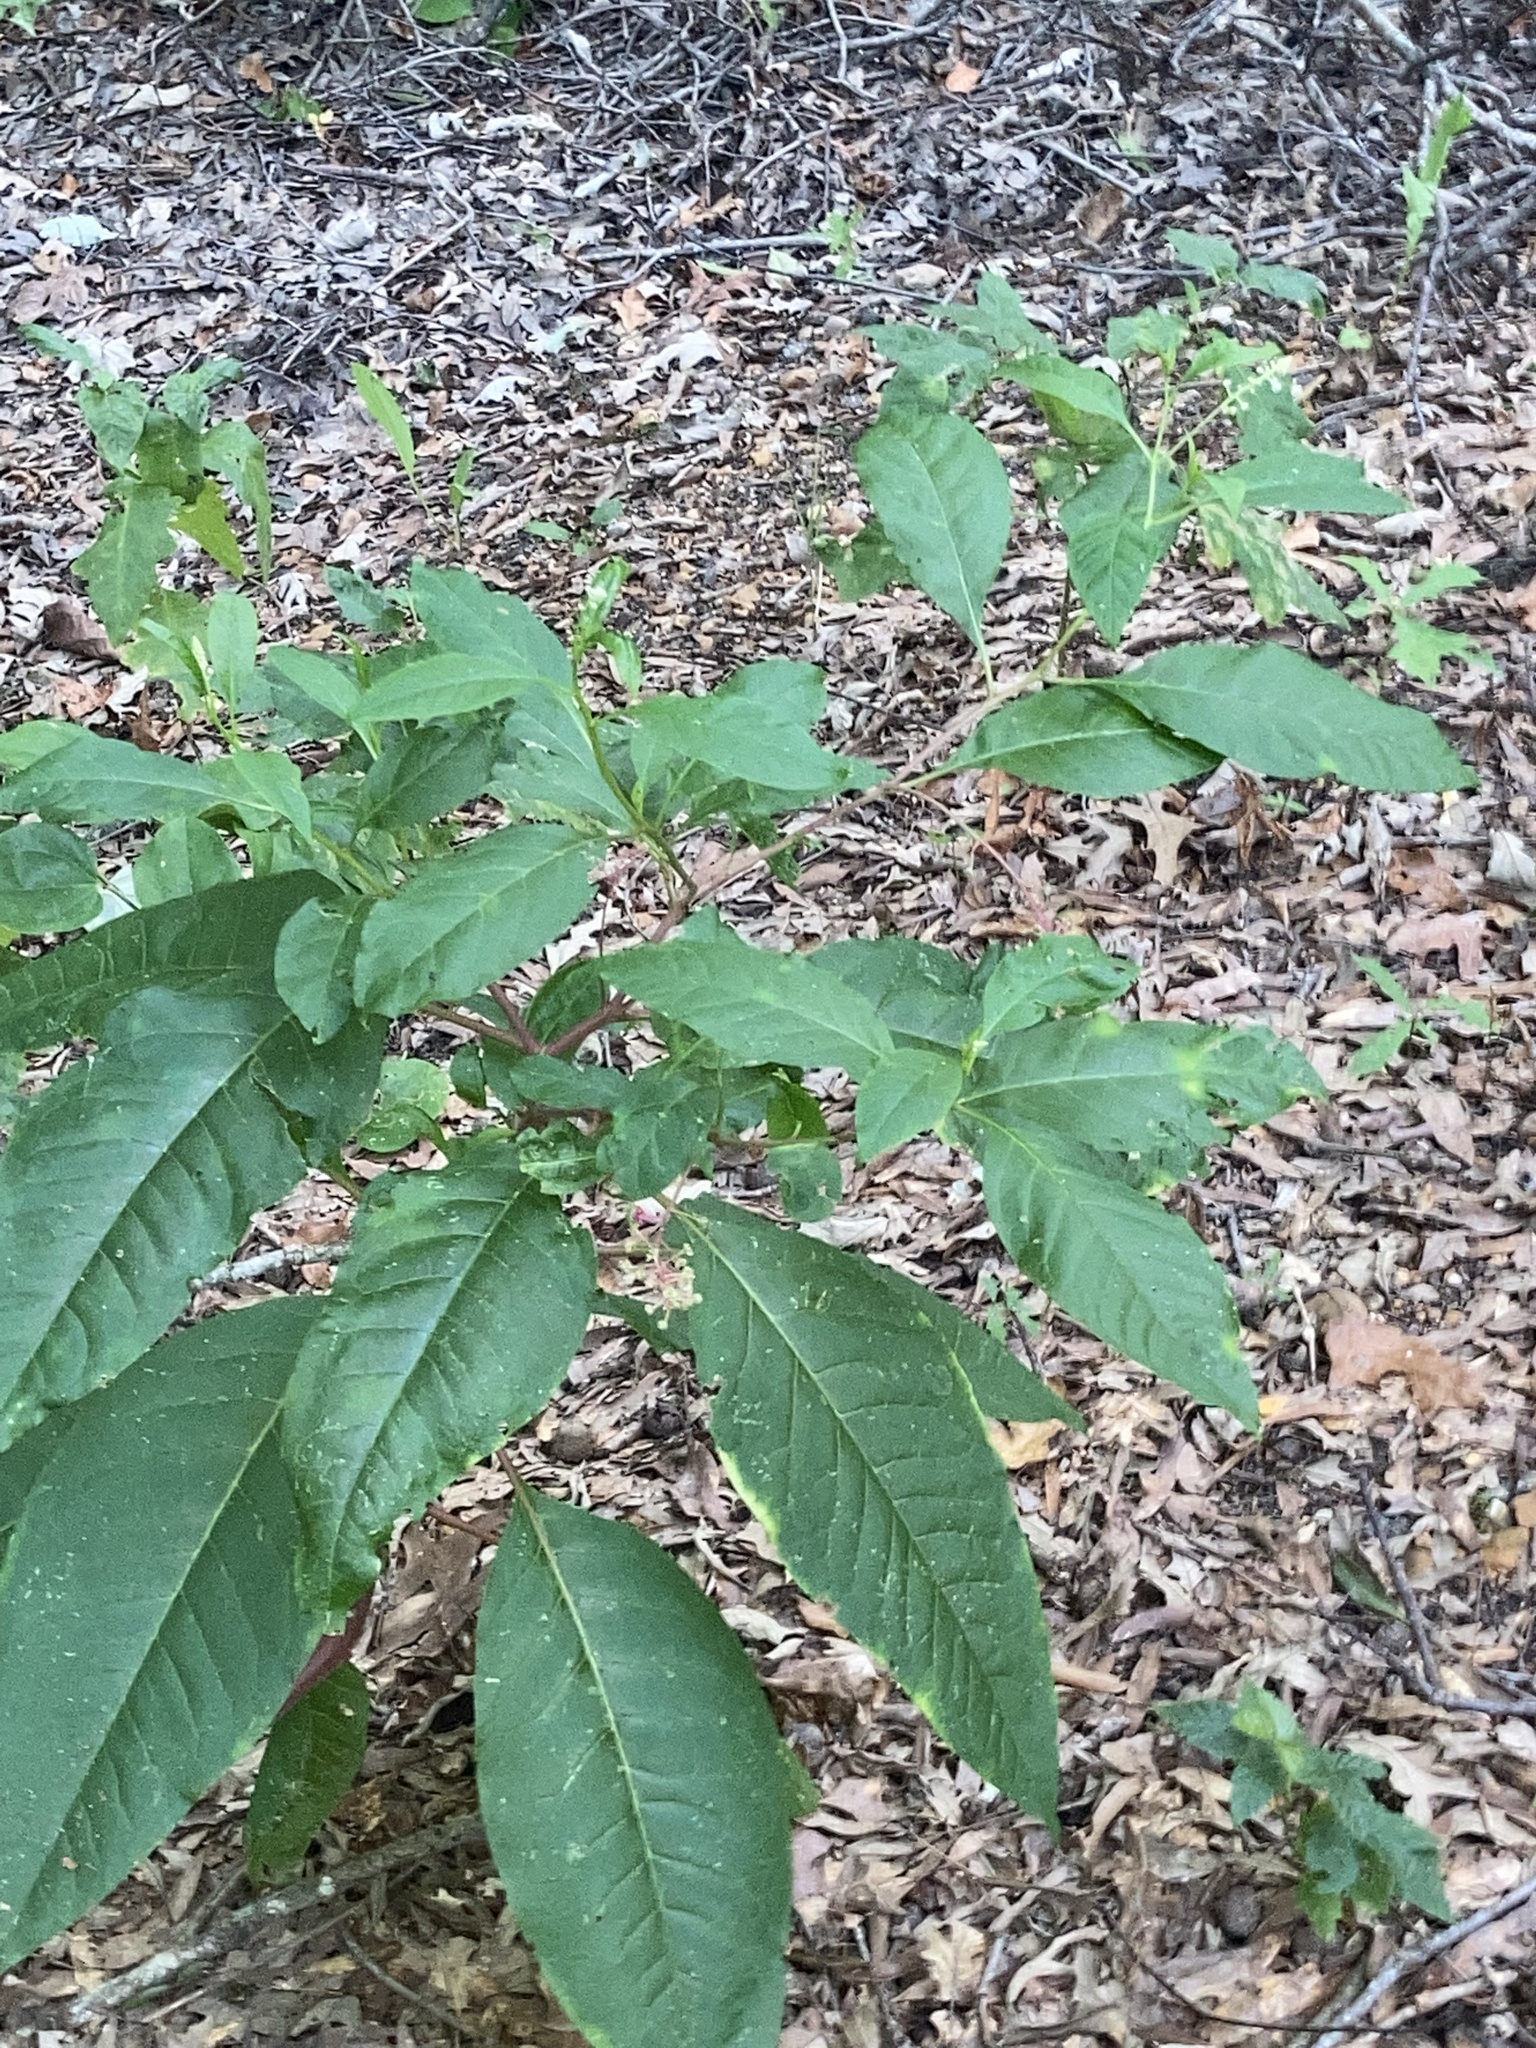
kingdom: Plantae
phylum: Tracheophyta
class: Magnoliopsida
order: Caryophyllales
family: Phytolaccaceae
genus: Phytolacca
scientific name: Phytolacca americana
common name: American pokeweed
